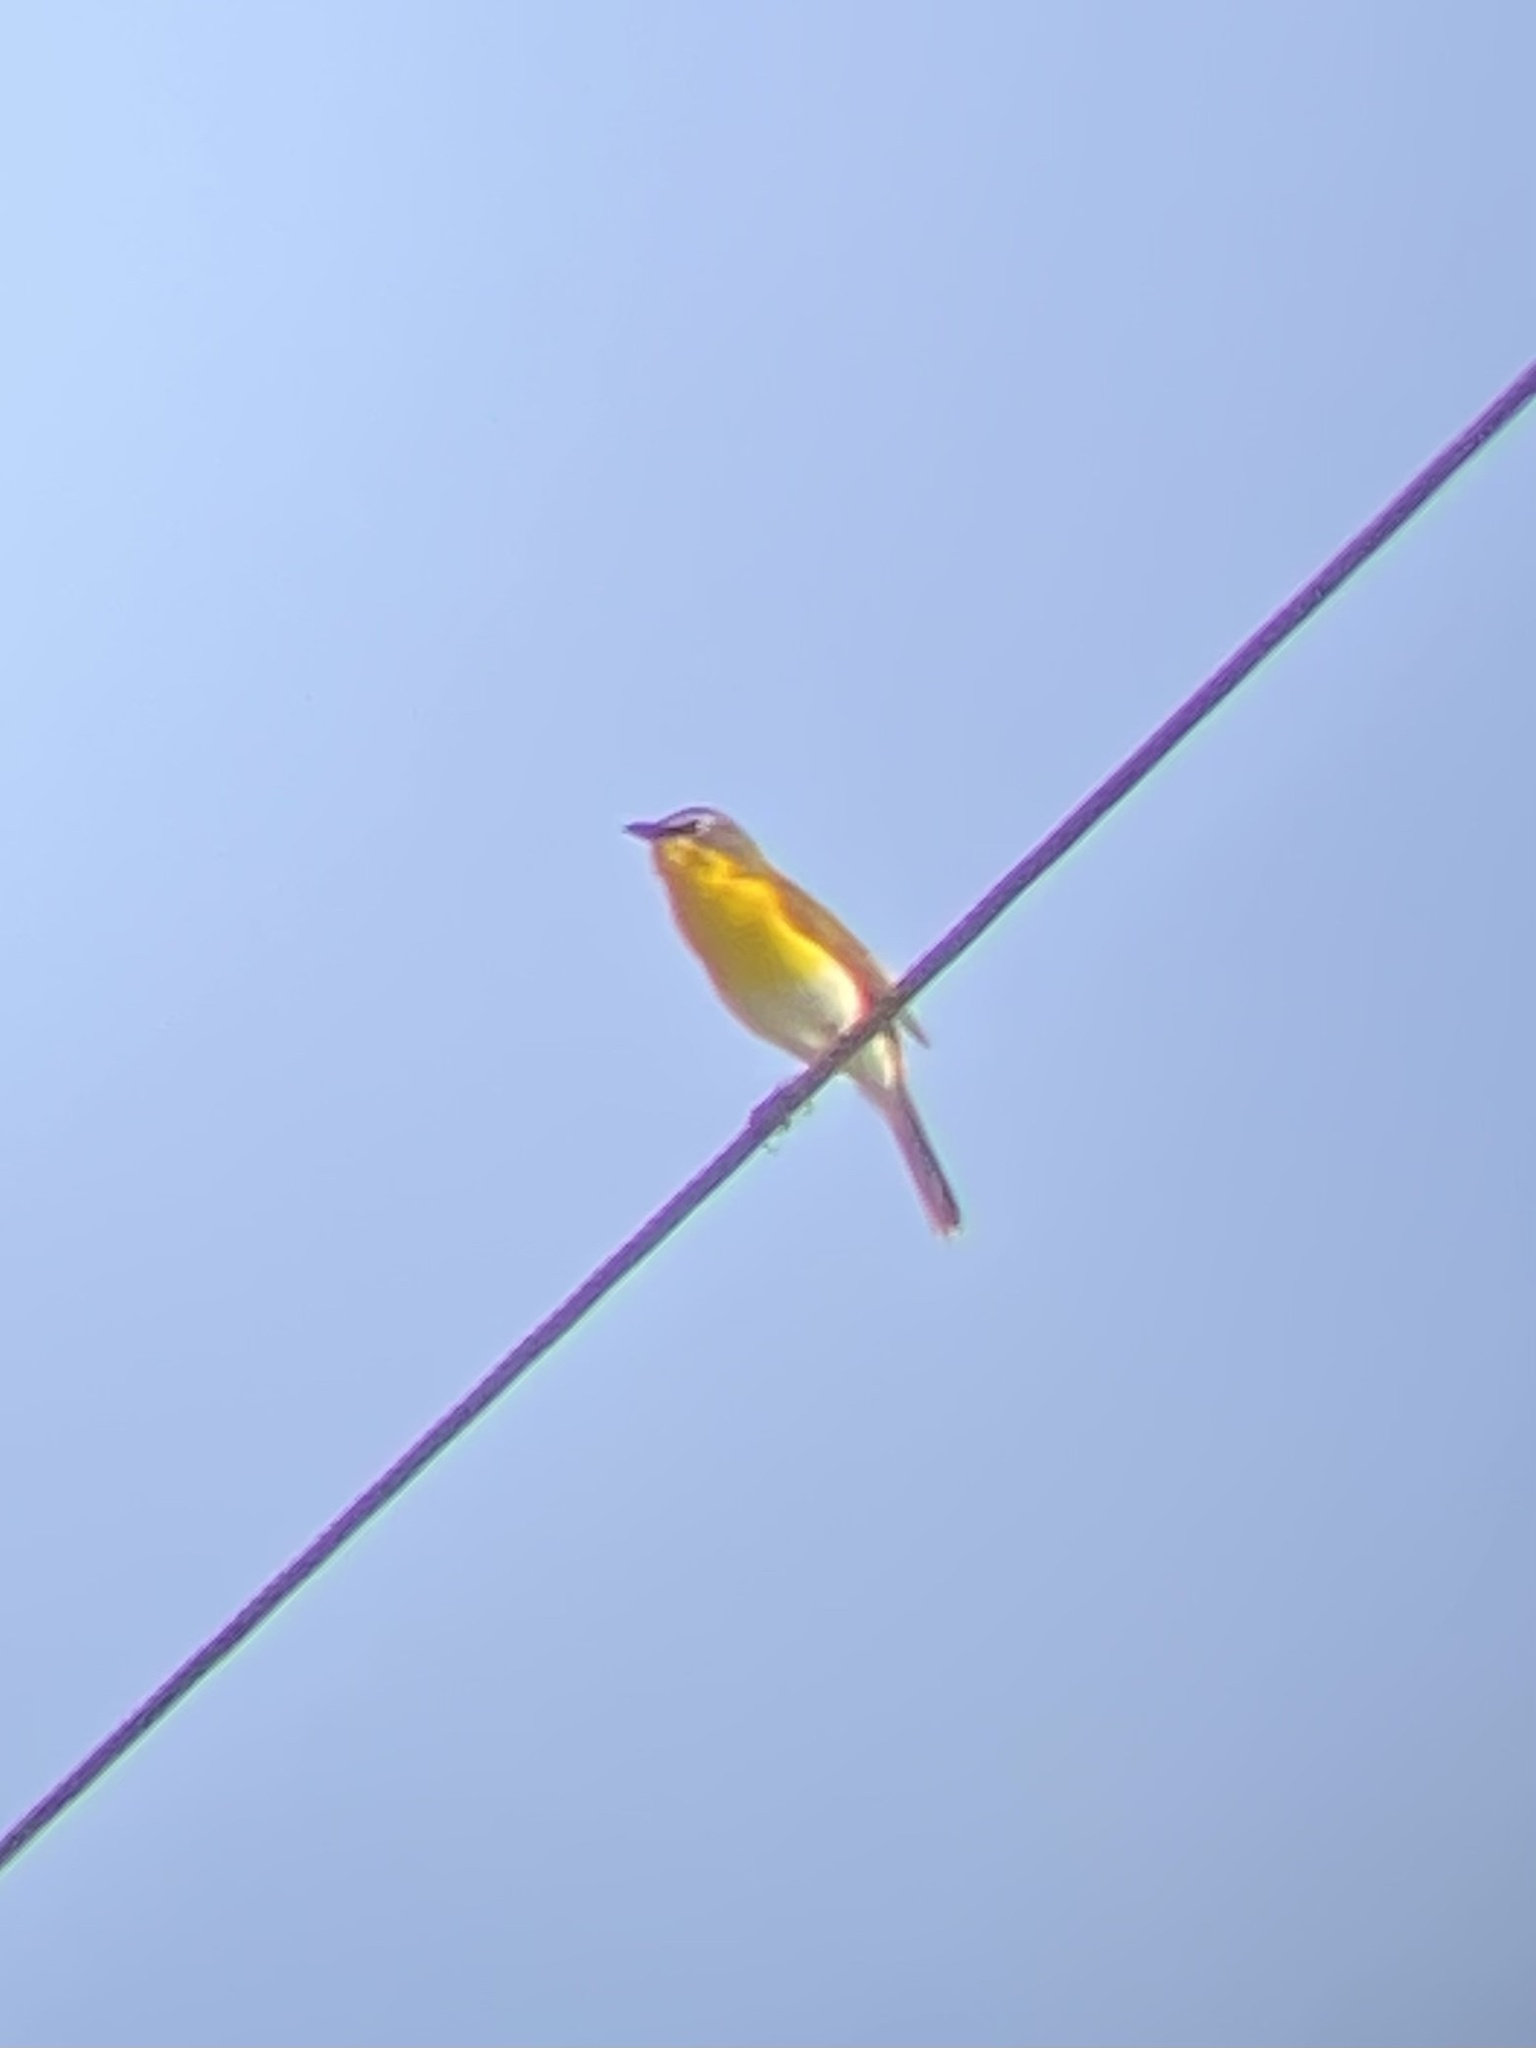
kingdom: Animalia
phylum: Chordata
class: Aves
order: Passeriformes
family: Parulidae
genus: Icteria
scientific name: Icteria virens
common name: Yellow-breasted chat
